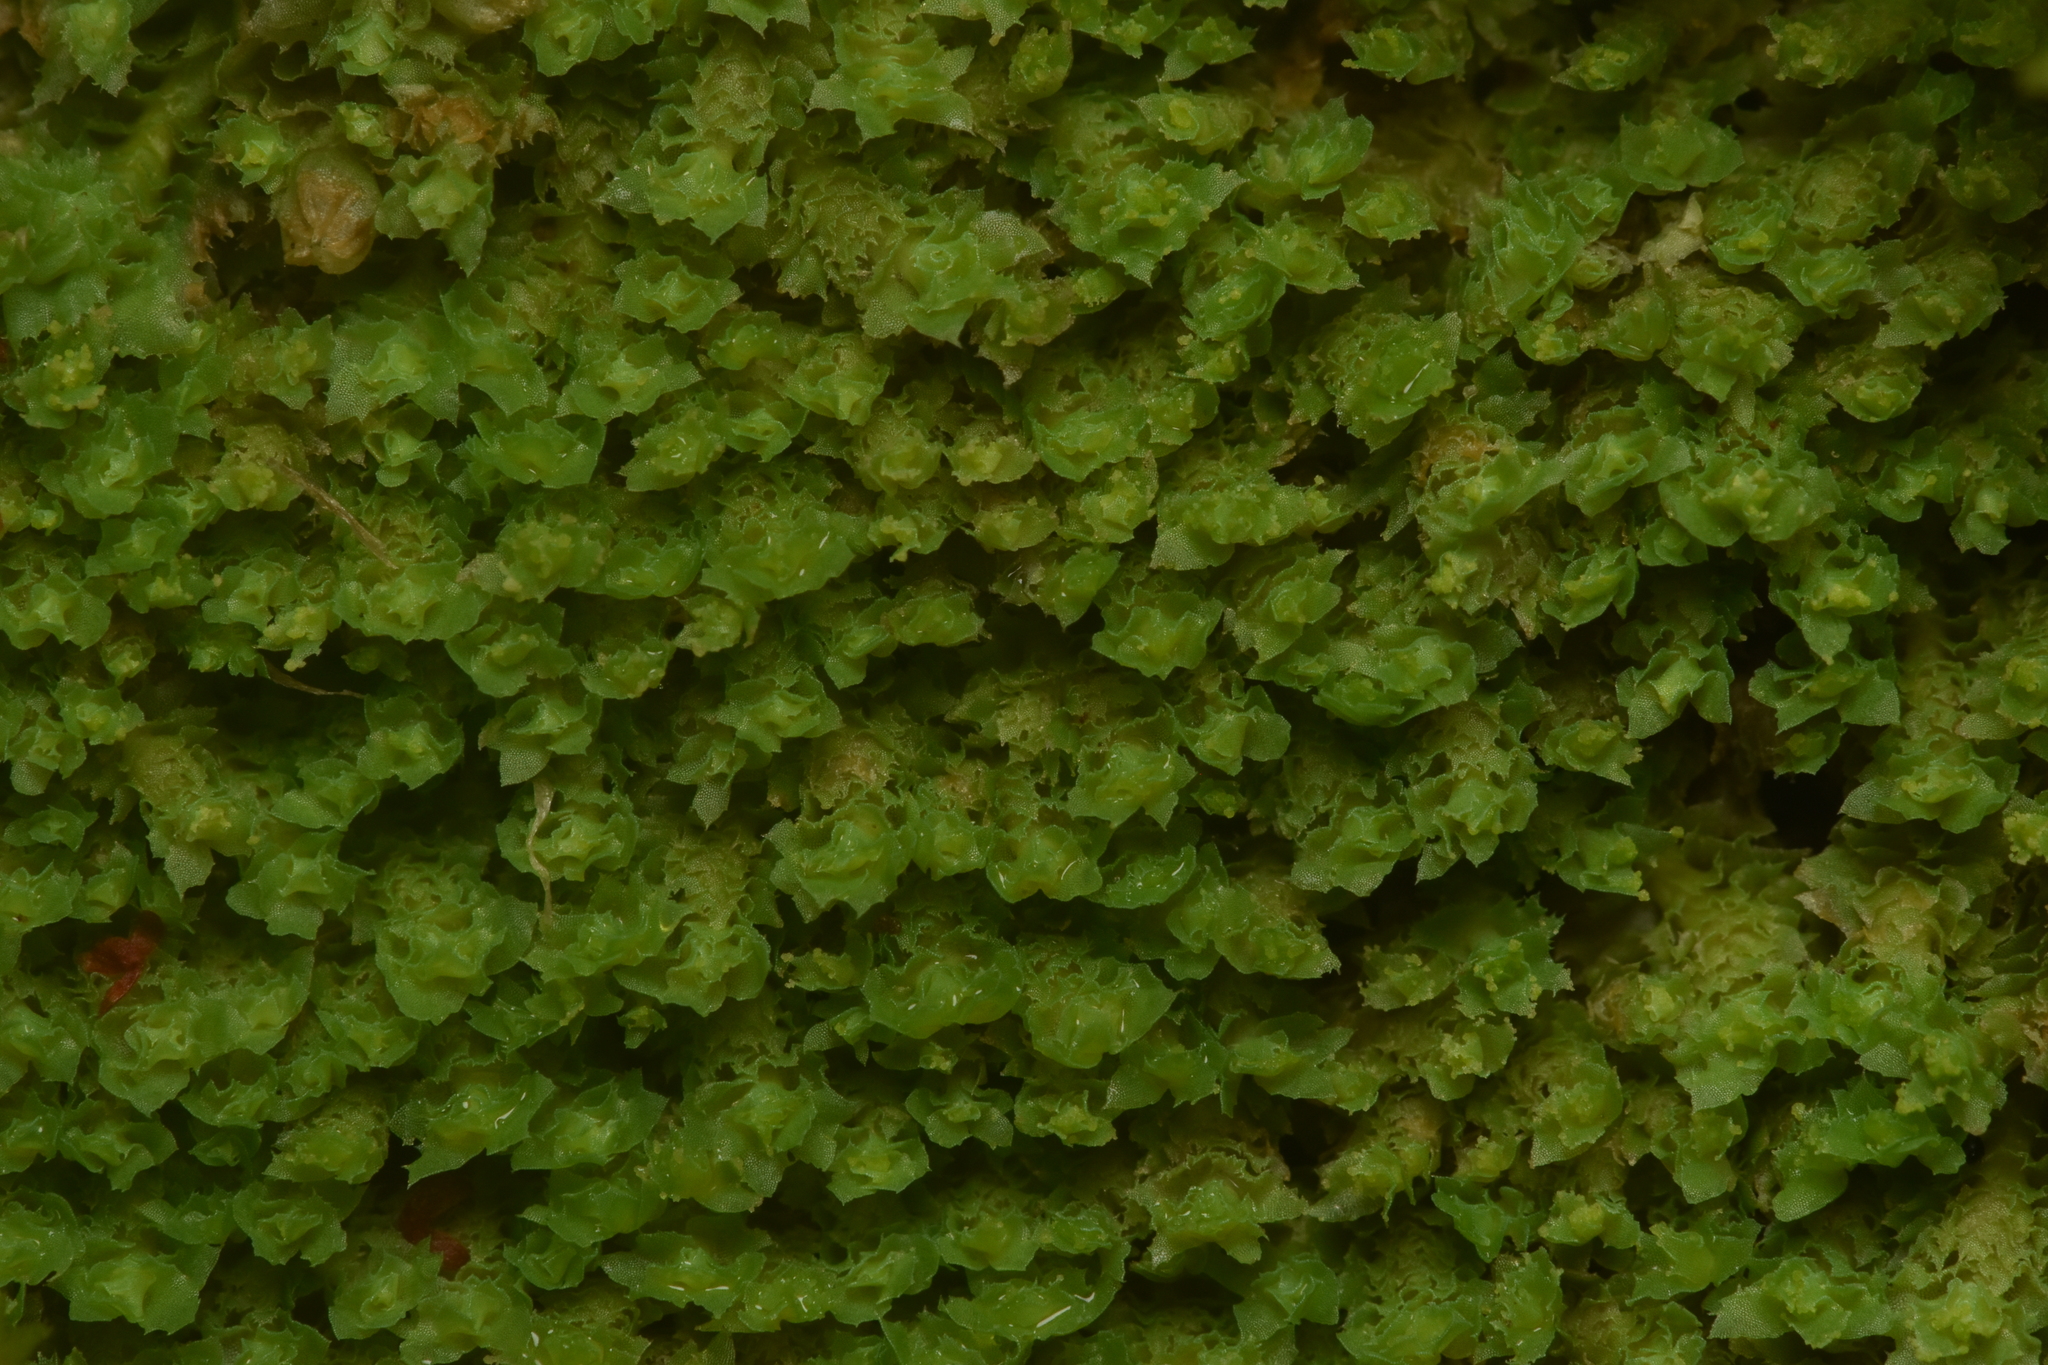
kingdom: Plantae
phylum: Marchantiophyta
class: Jungermanniopsida
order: Jungermanniales
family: Scapaniaceae
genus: Schistochilopsis
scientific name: Schistochilopsis incisa
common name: Jagged notchwort
